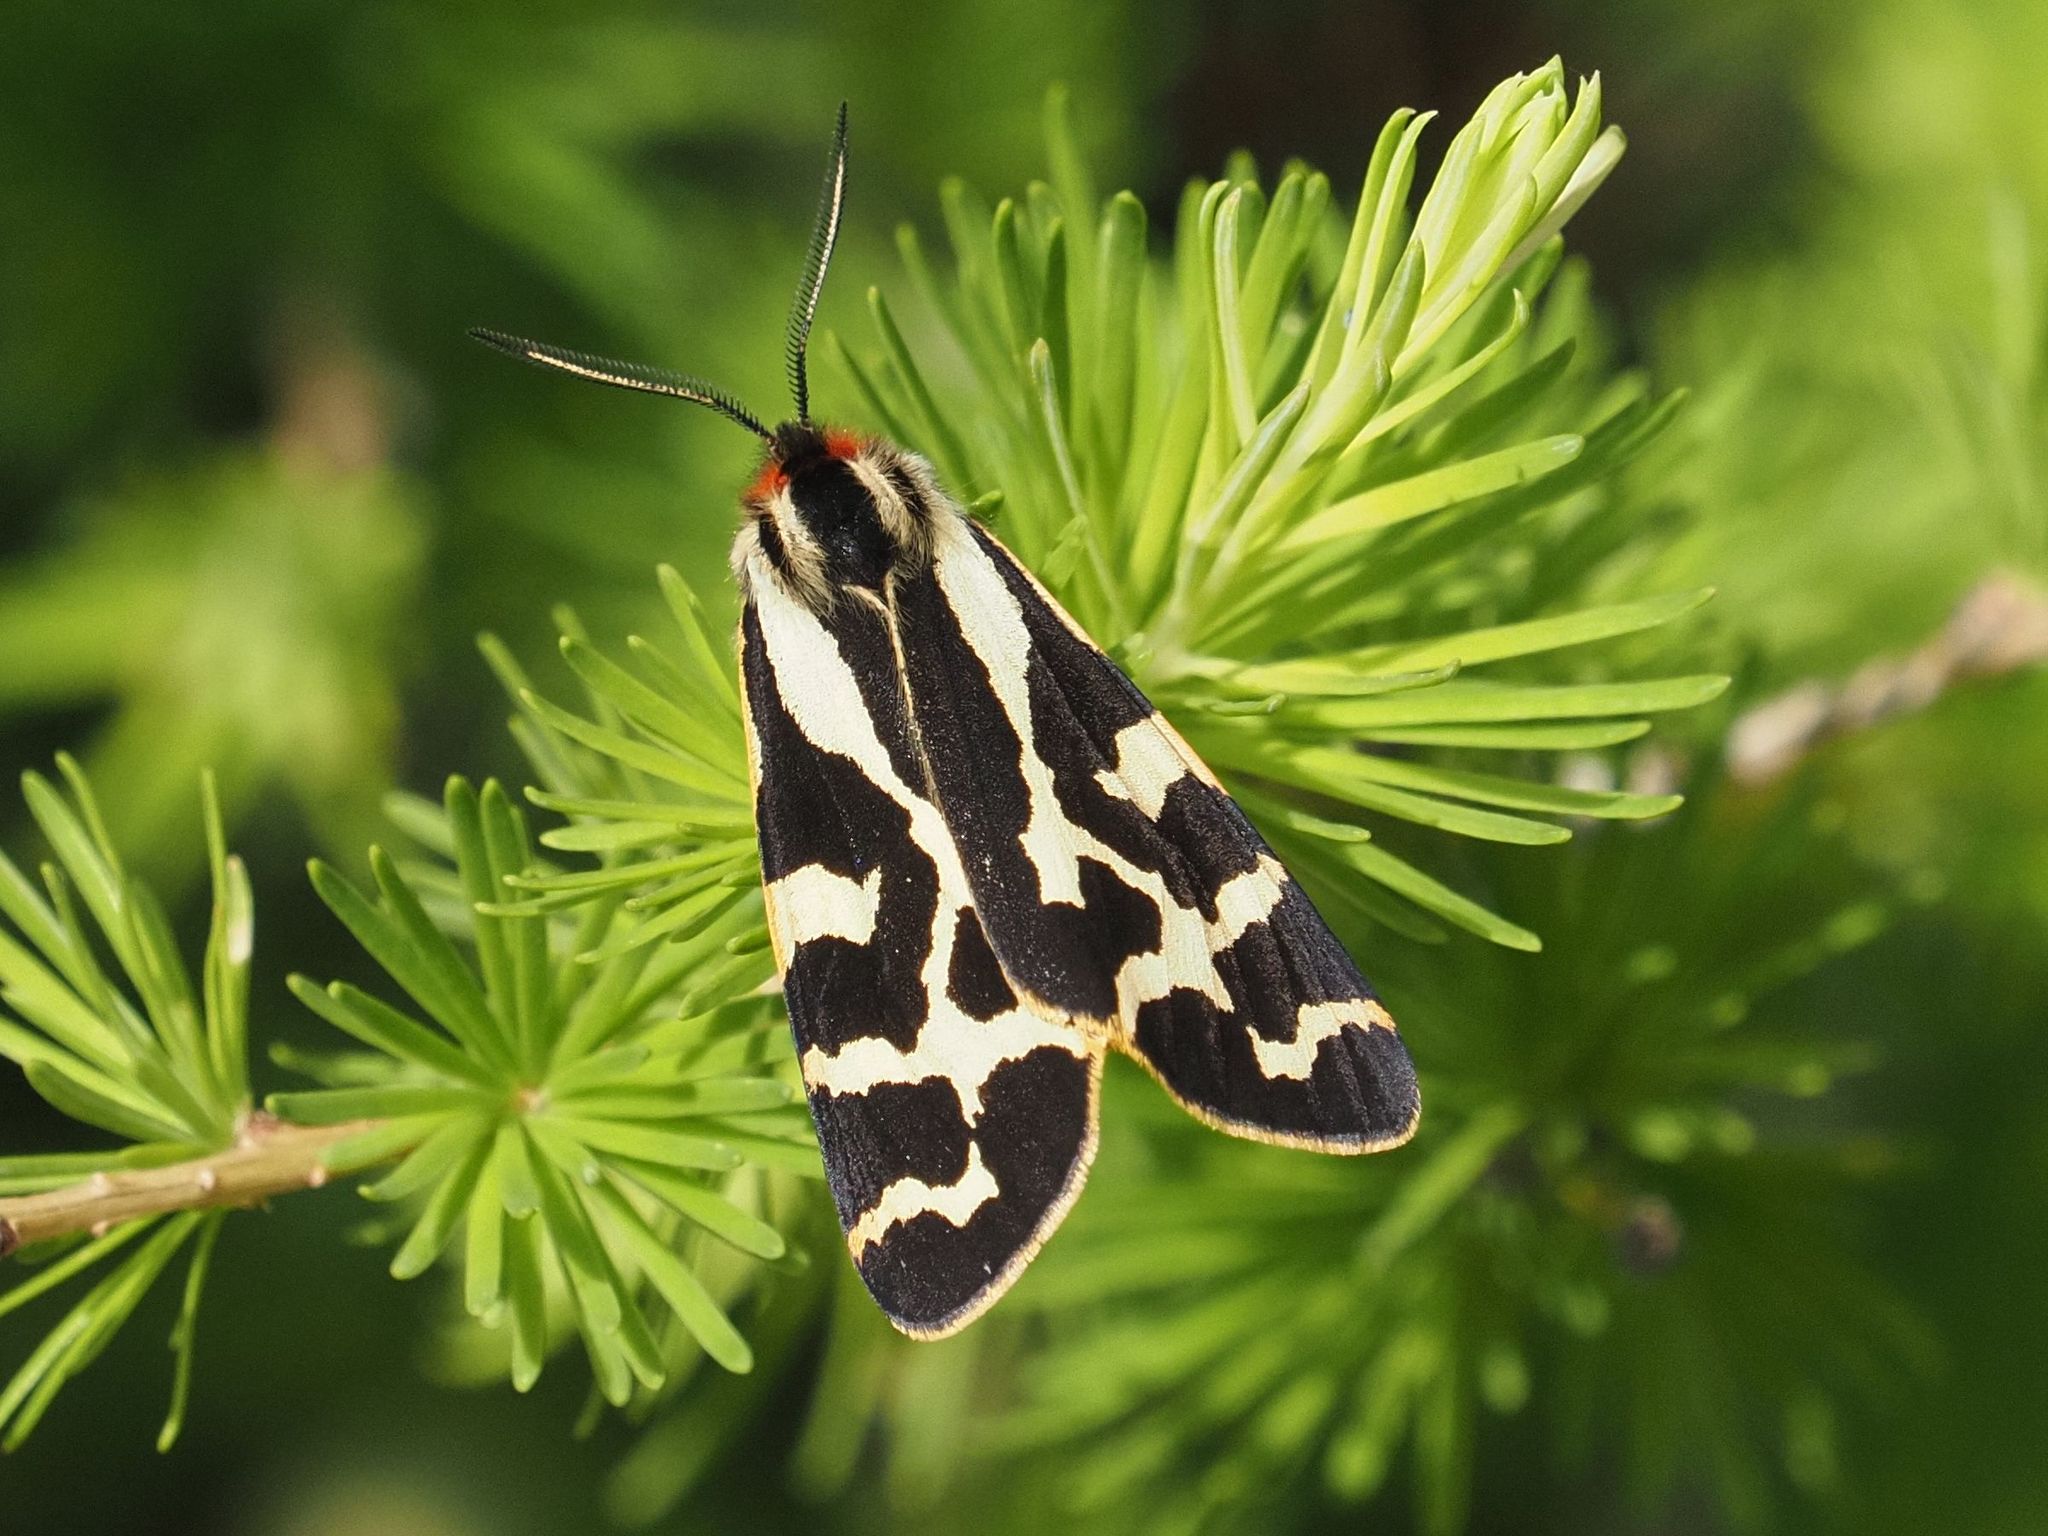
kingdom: Animalia
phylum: Arthropoda
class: Insecta
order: Lepidoptera
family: Erebidae
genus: Parasemia
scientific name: Parasemia plantaginis
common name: Wood tiger
